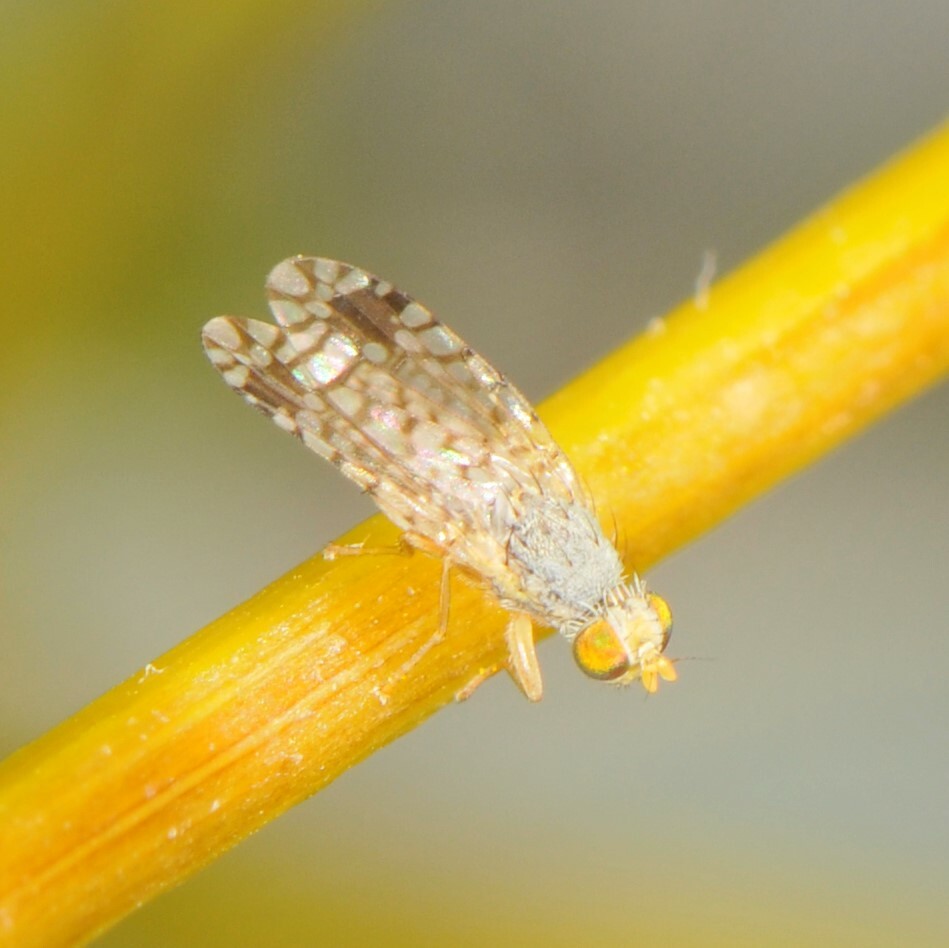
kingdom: Animalia
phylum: Arthropoda
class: Insecta
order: Diptera
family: Tephritidae
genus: Euarestoides
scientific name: Euarestoides acutangulus
